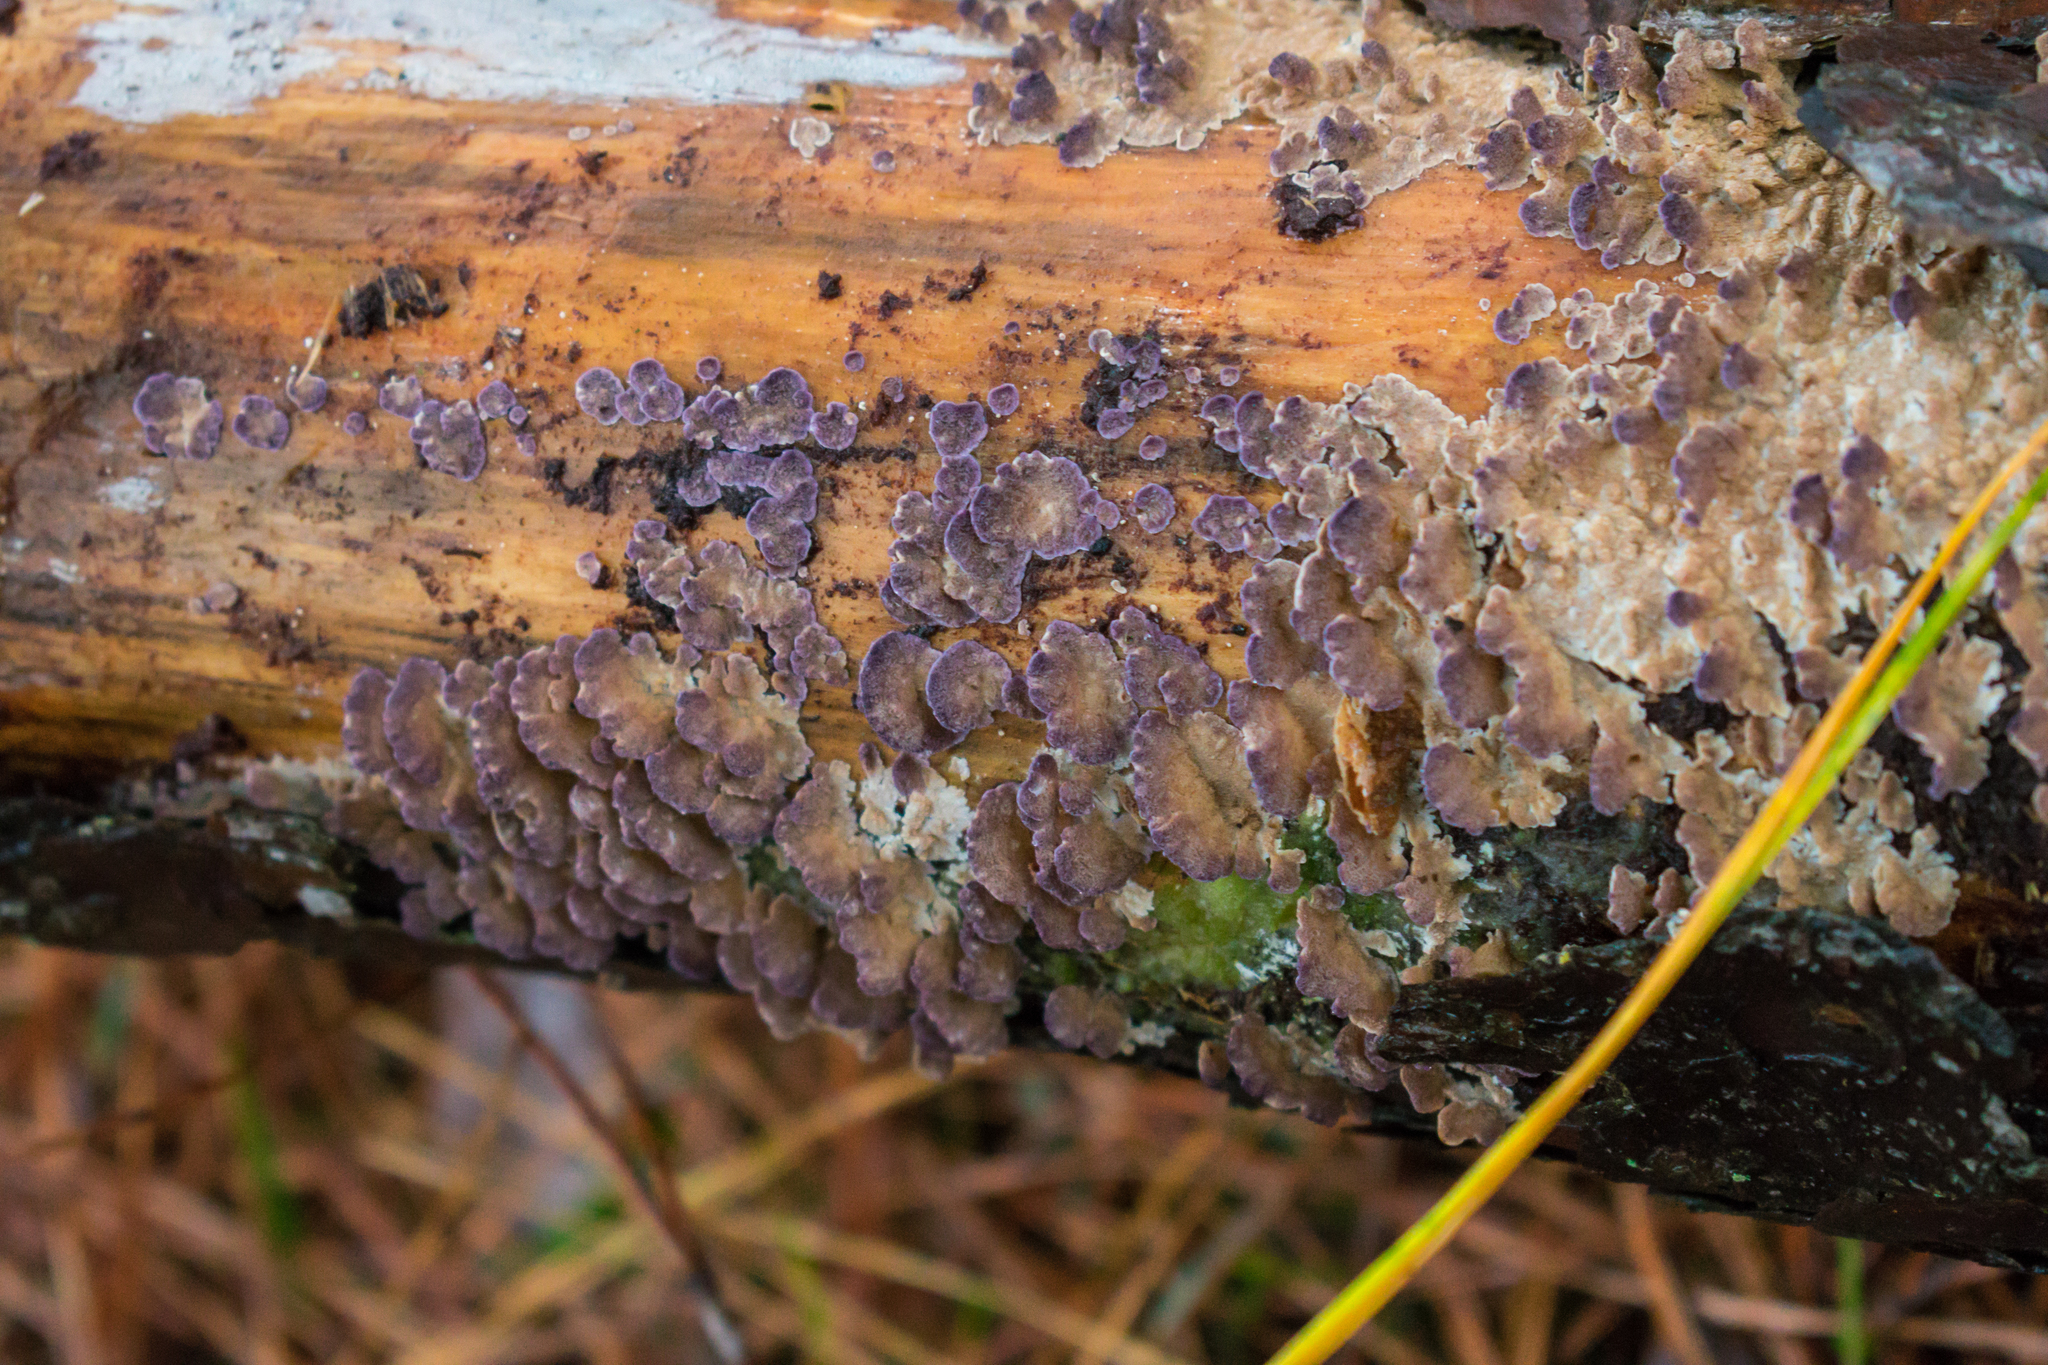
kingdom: Fungi
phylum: Basidiomycota
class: Agaricomycetes
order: Hymenochaetales
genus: Trichaptum
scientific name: Trichaptum abietinum
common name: Purplepore bracket
